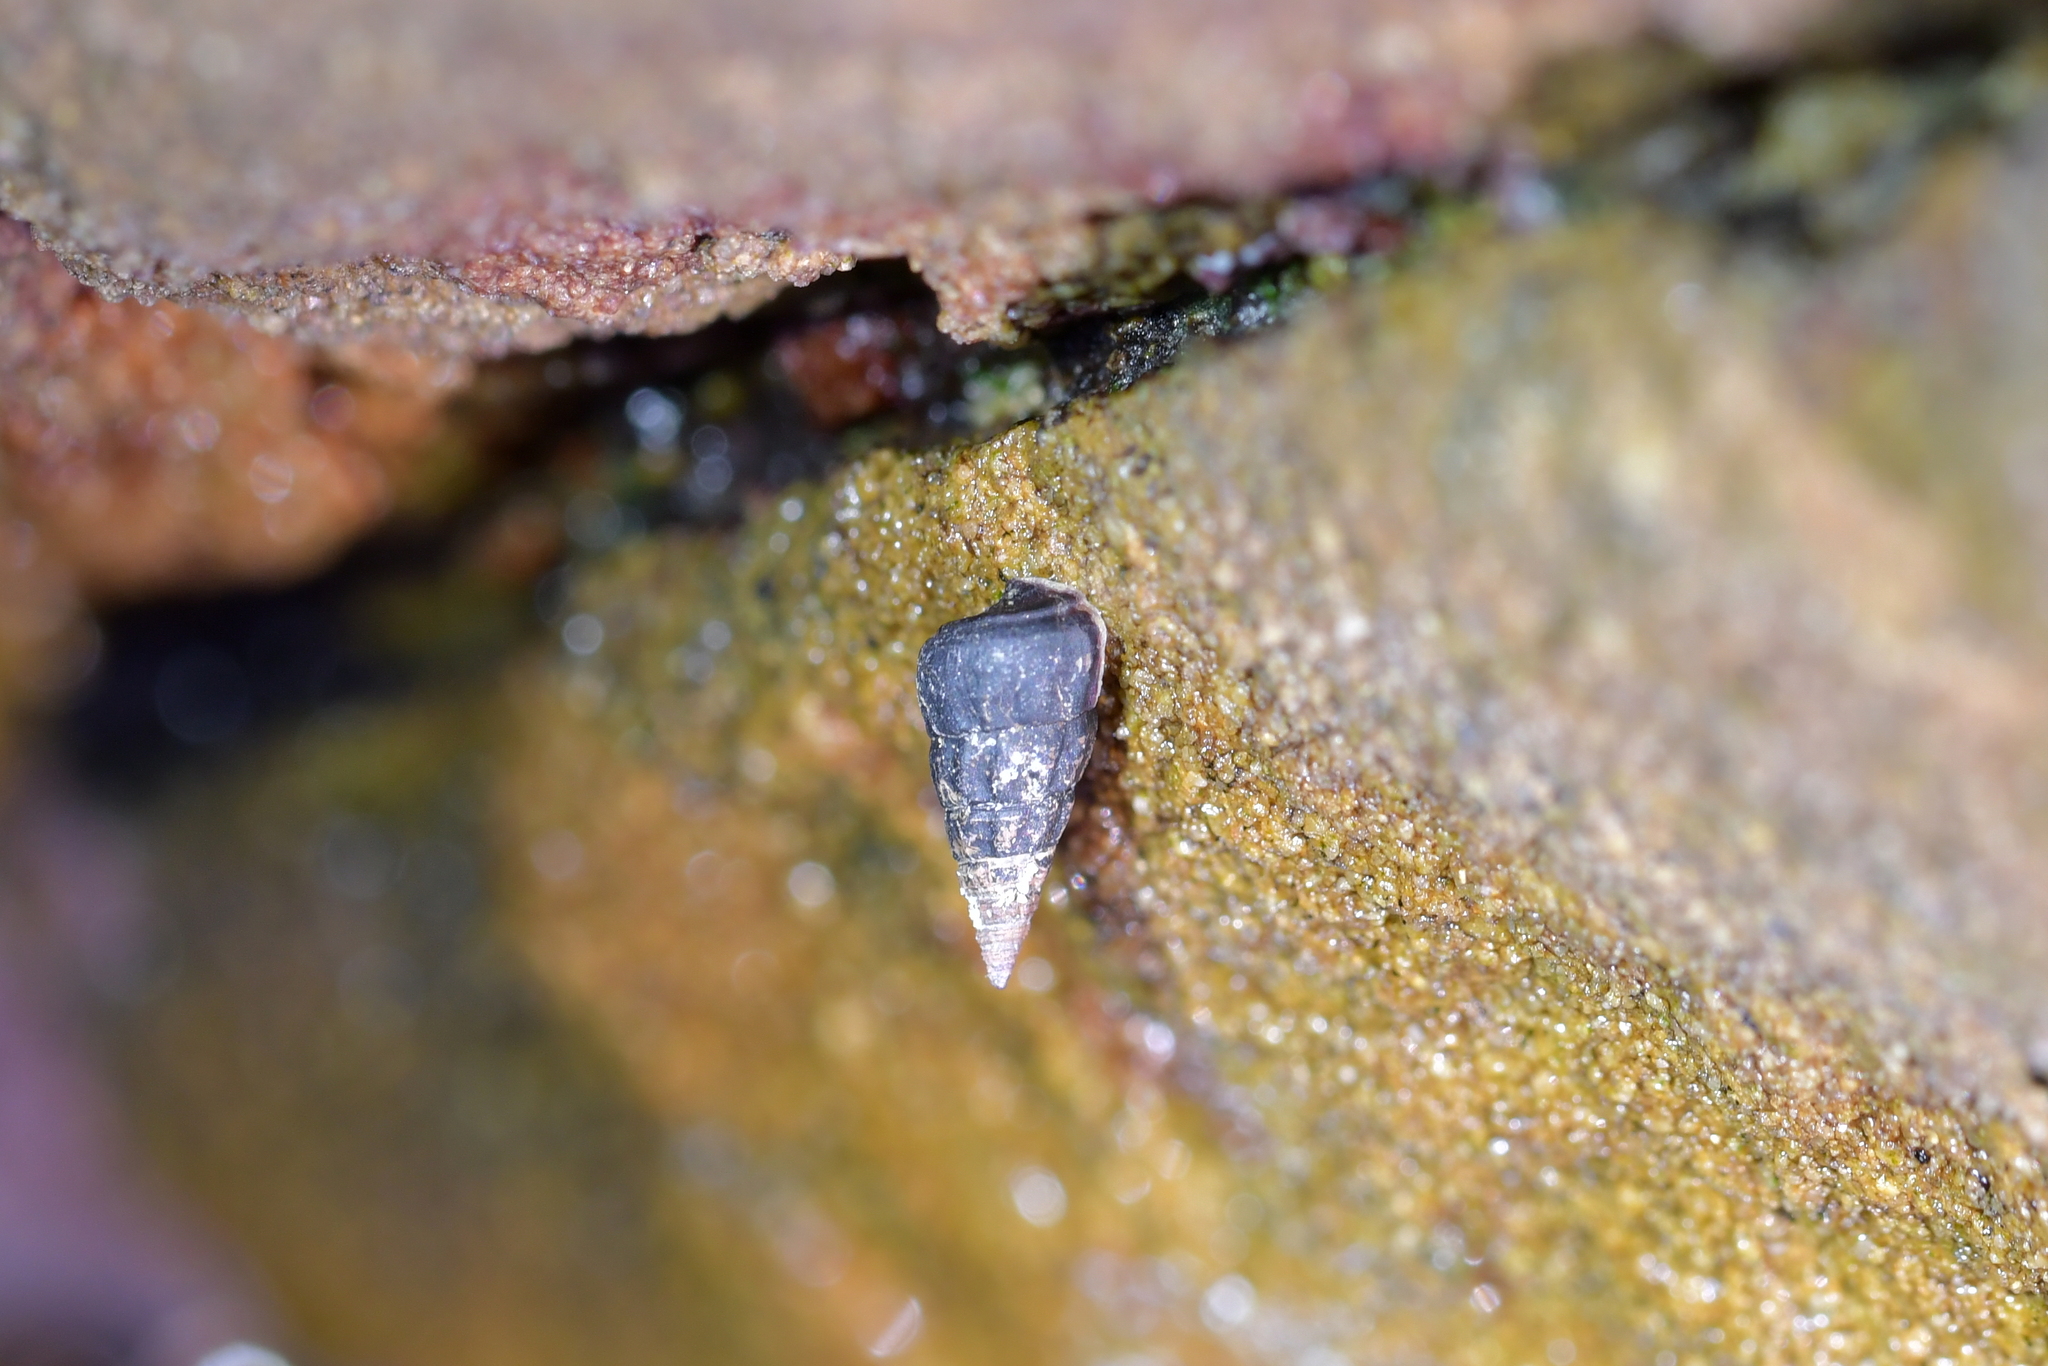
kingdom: Animalia
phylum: Mollusca
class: Gastropoda
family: Batillariidae
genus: Zeacumantus
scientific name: Zeacumantus subcarinatus
